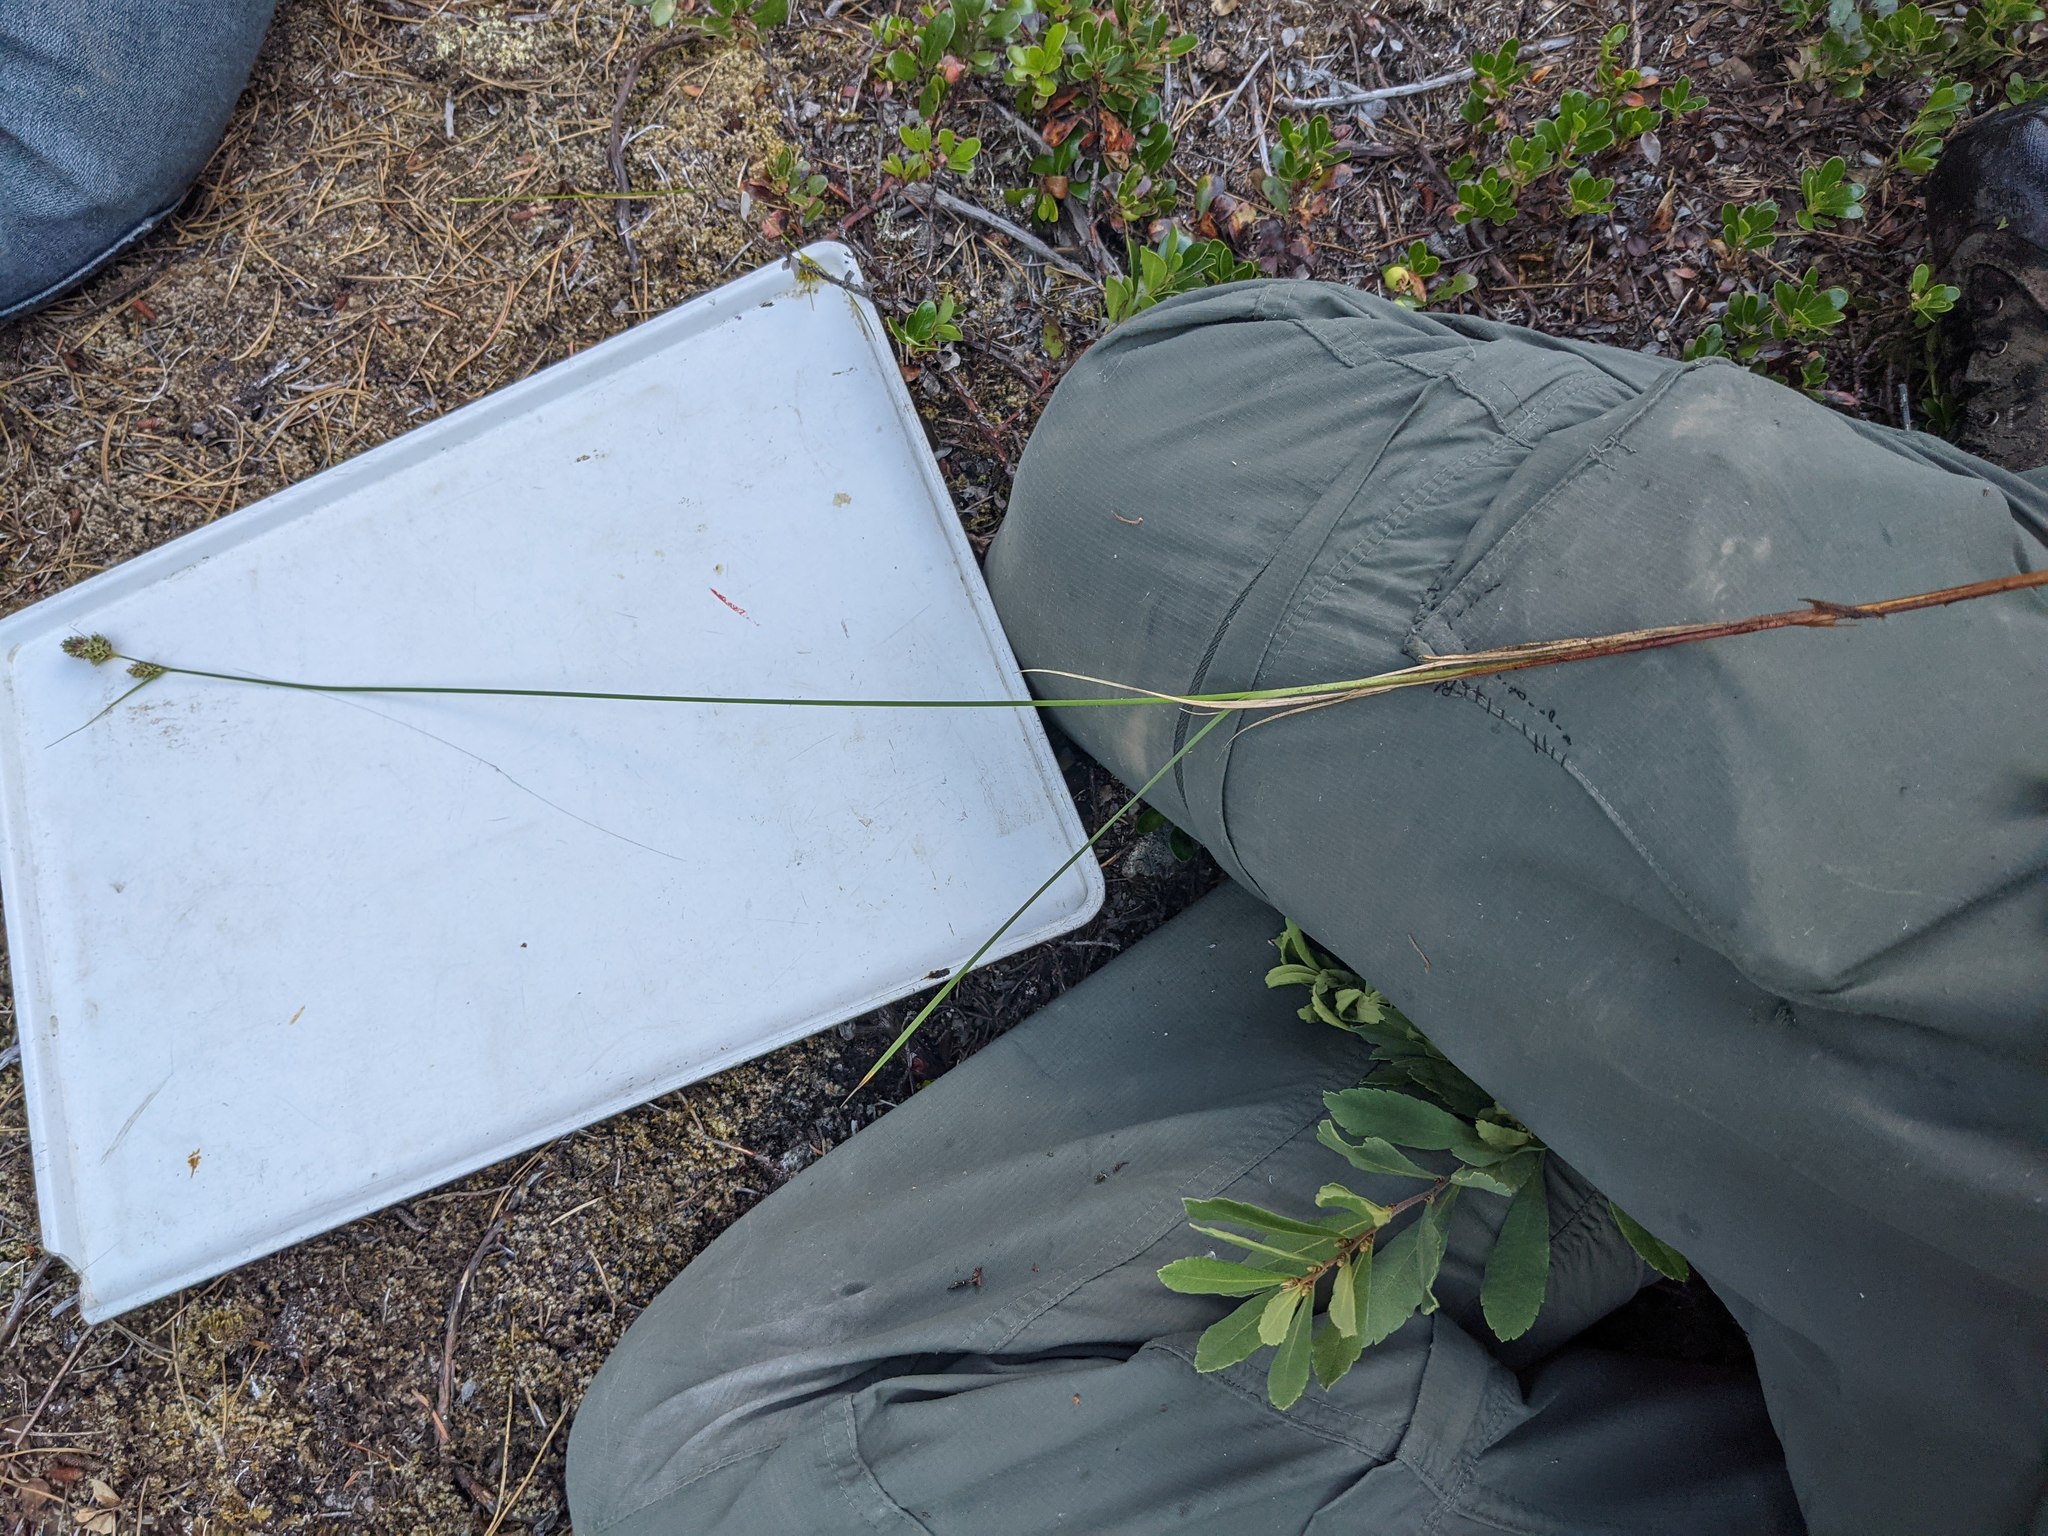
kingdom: Plantae
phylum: Tracheophyta
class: Liliopsida
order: Poales
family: Cyperaceae
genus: Carex
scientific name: Carex buxbaumii
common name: Club sedge
